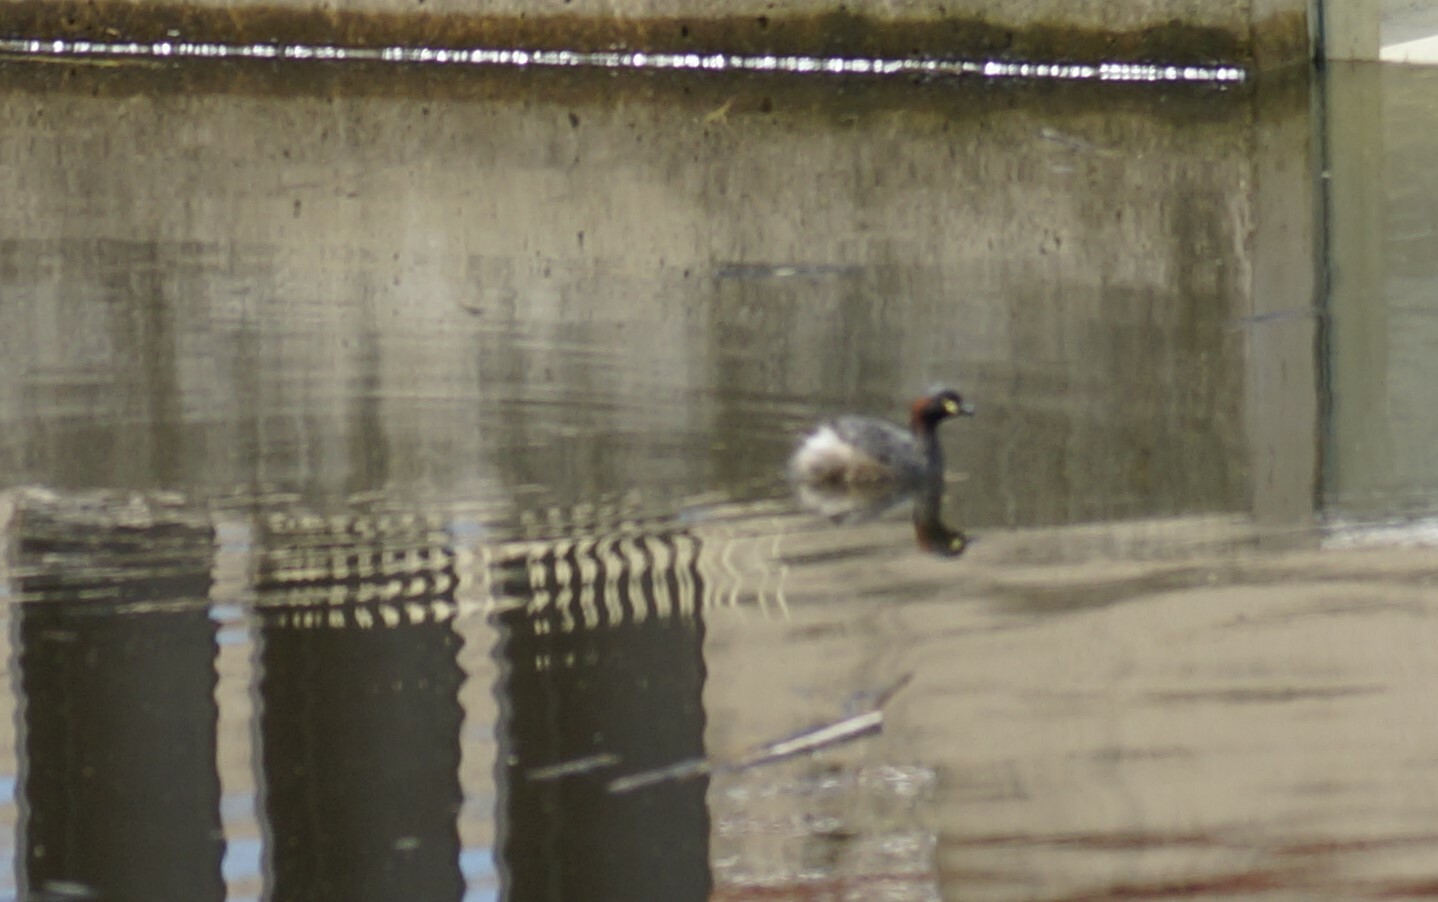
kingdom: Animalia
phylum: Chordata
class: Aves
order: Podicipediformes
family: Podicipedidae
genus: Tachybaptus
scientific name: Tachybaptus novaehollandiae
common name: Australasian grebe
